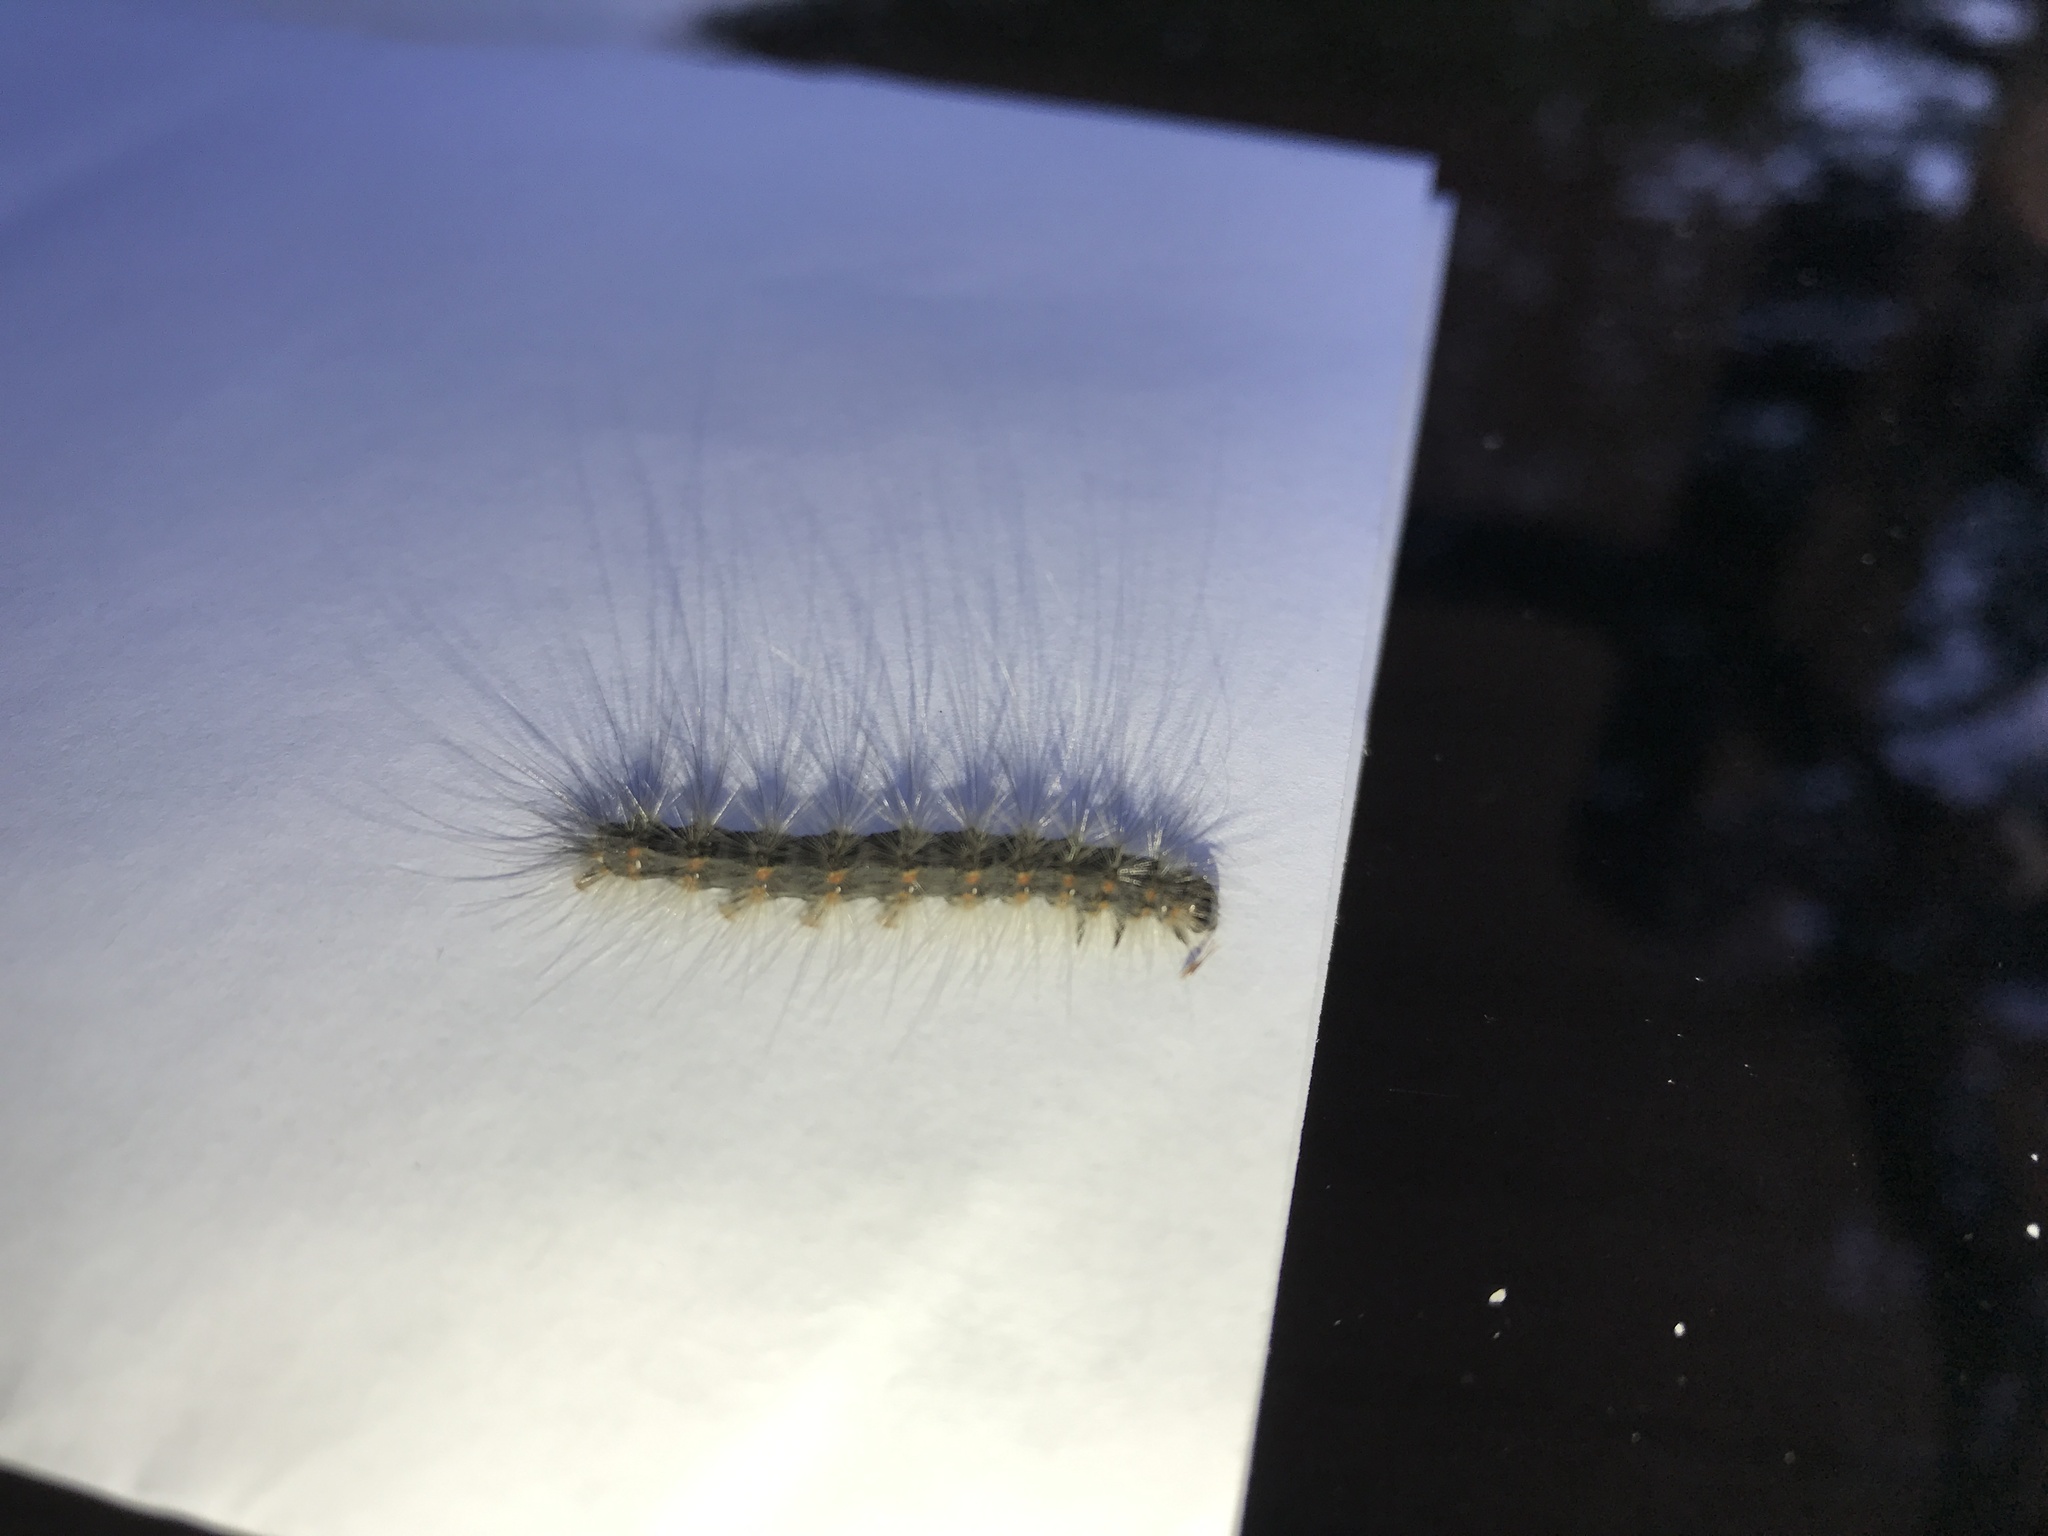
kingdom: Animalia
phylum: Arthropoda
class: Insecta
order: Lepidoptera
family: Erebidae
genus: Hyphantria
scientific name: Hyphantria cunea
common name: American white moth
